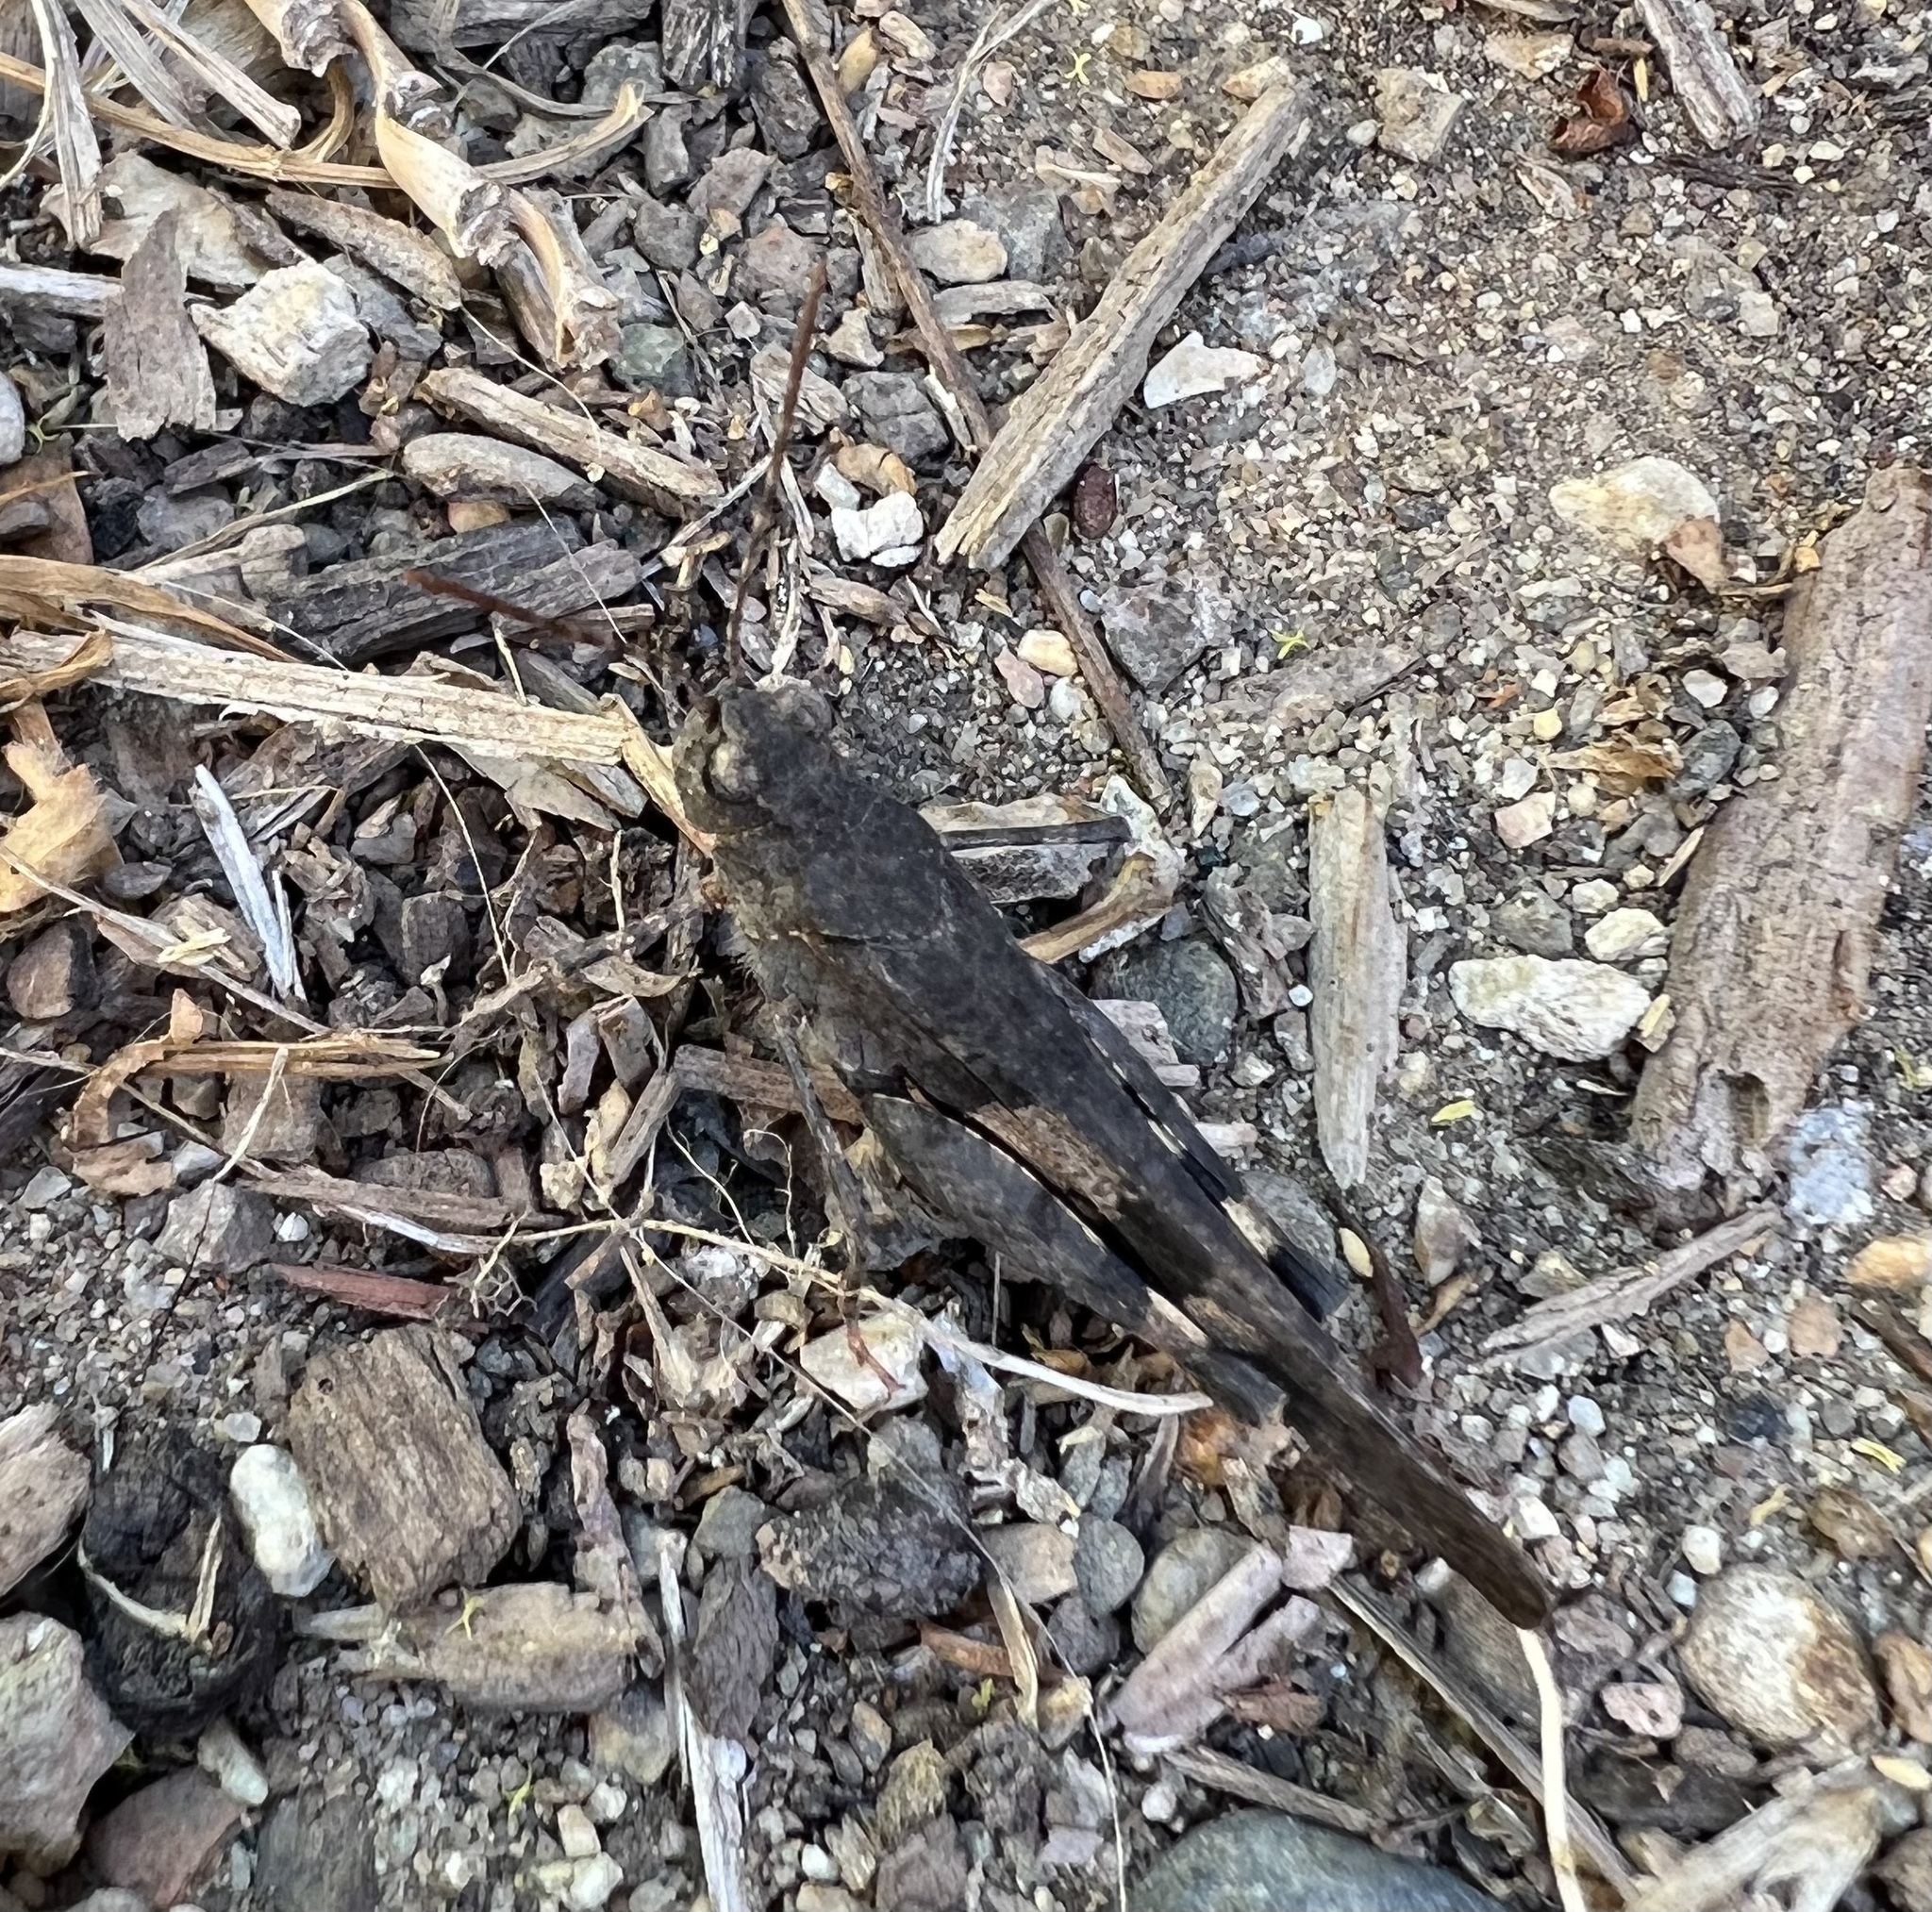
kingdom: Animalia
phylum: Arthropoda
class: Insecta
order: Orthoptera
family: Acrididae
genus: Trimerotropis
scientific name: Trimerotropis fontana
